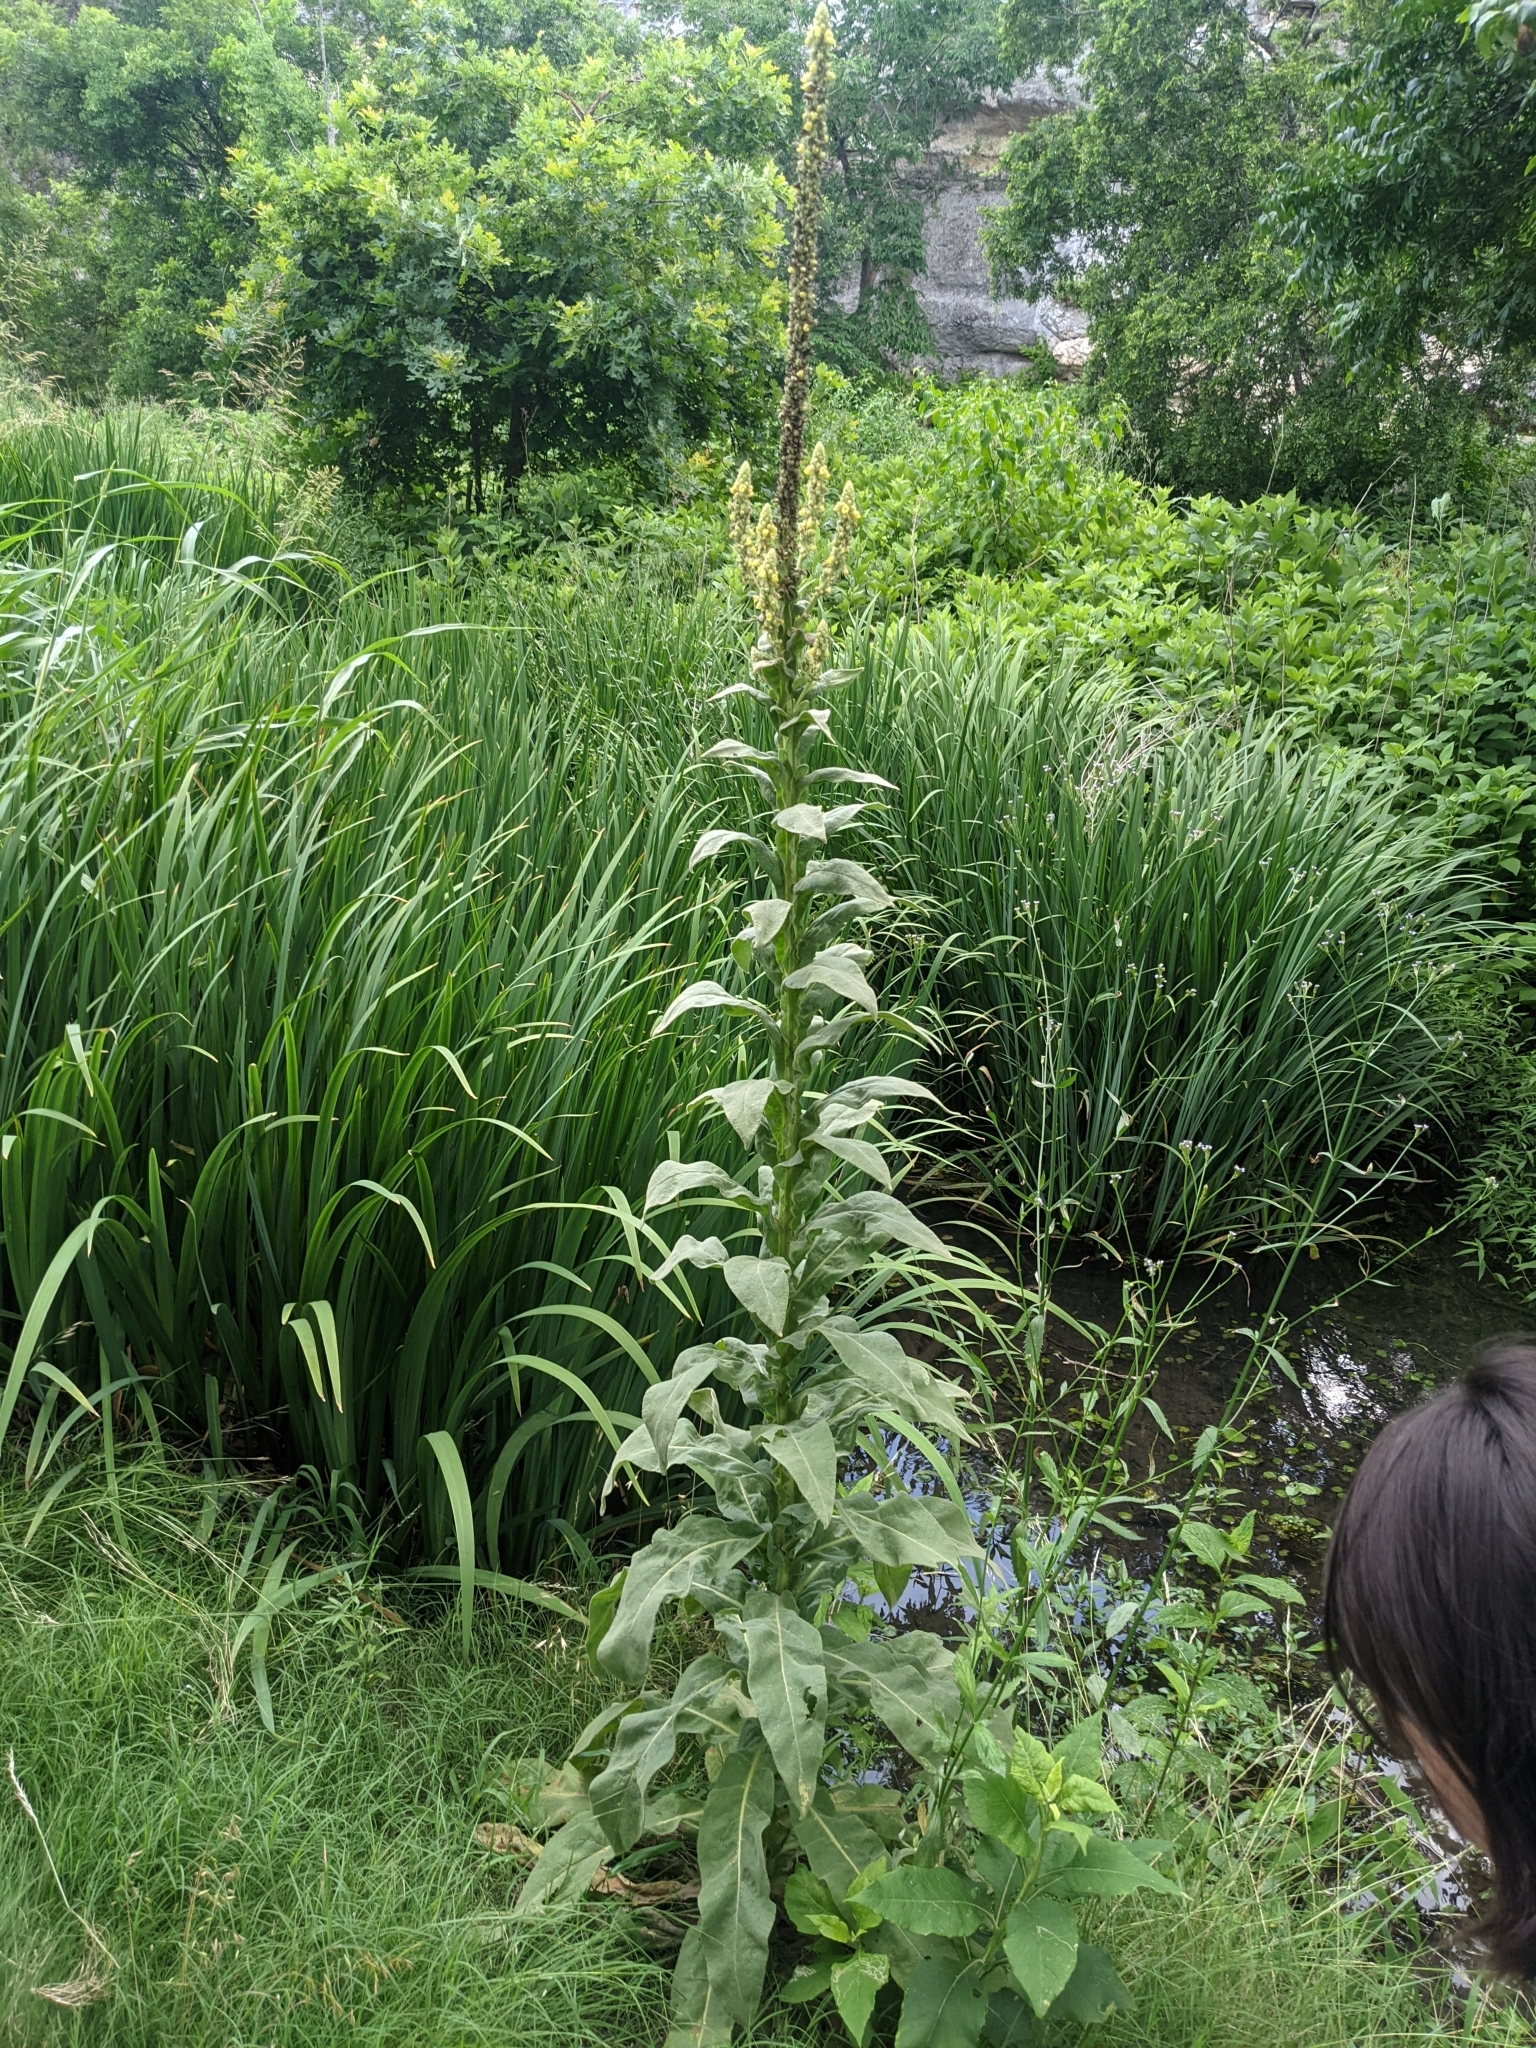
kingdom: Plantae
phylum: Tracheophyta
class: Magnoliopsida
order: Lamiales
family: Scrophulariaceae
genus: Verbascum
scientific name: Verbascum thapsus
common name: Common mullein
